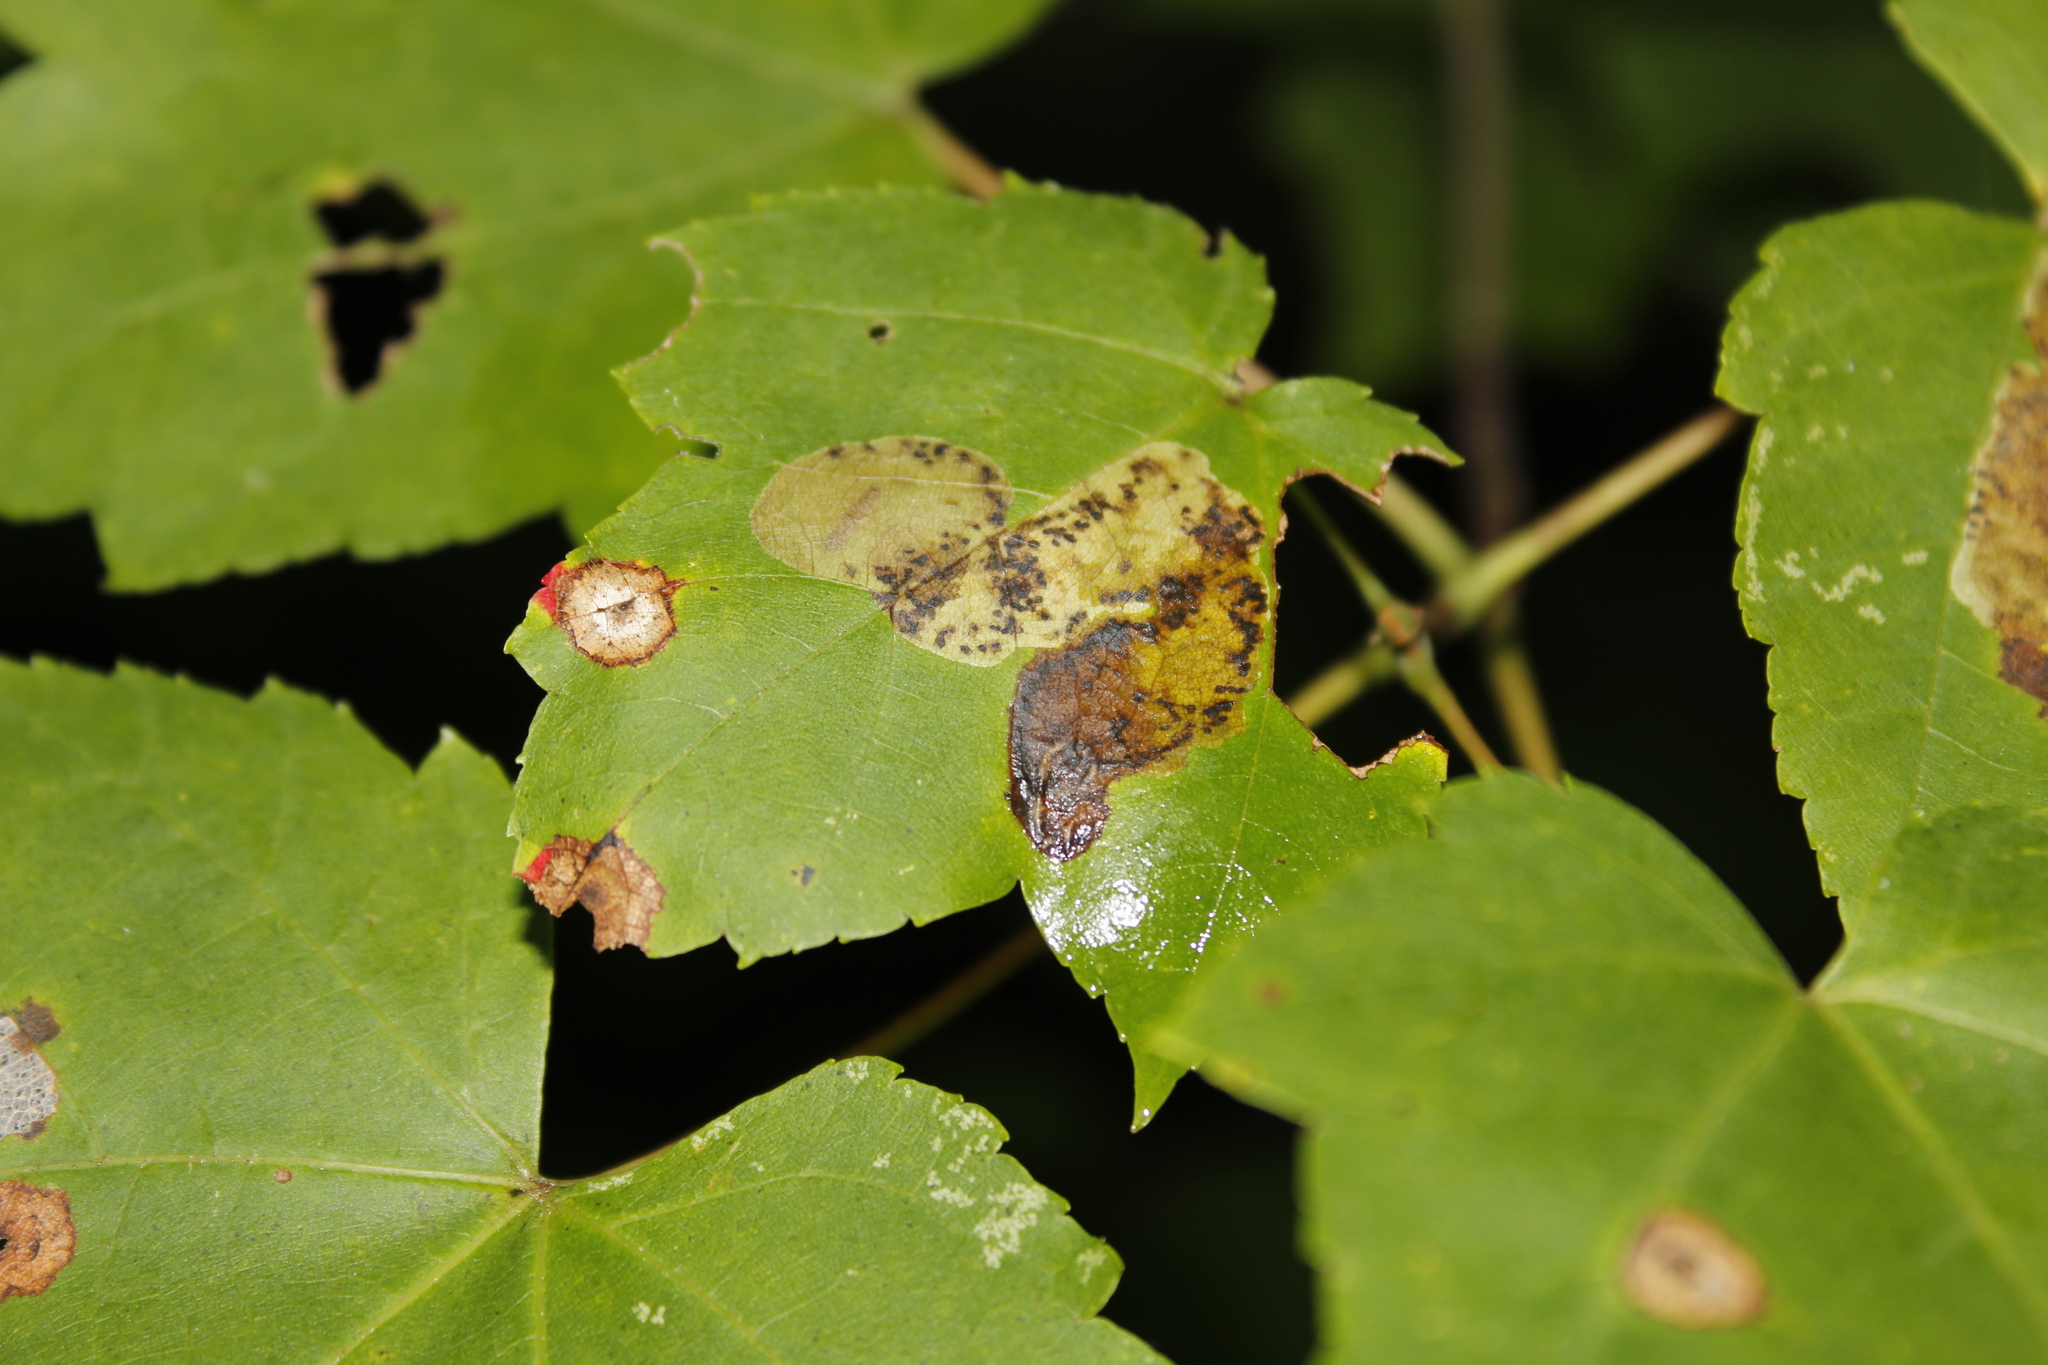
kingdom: Animalia
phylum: Arthropoda
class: Insecta
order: Lepidoptera
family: Gracillariidae
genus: Cameraria
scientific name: Cameraria aceriella
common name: Maple leafblotch miner
